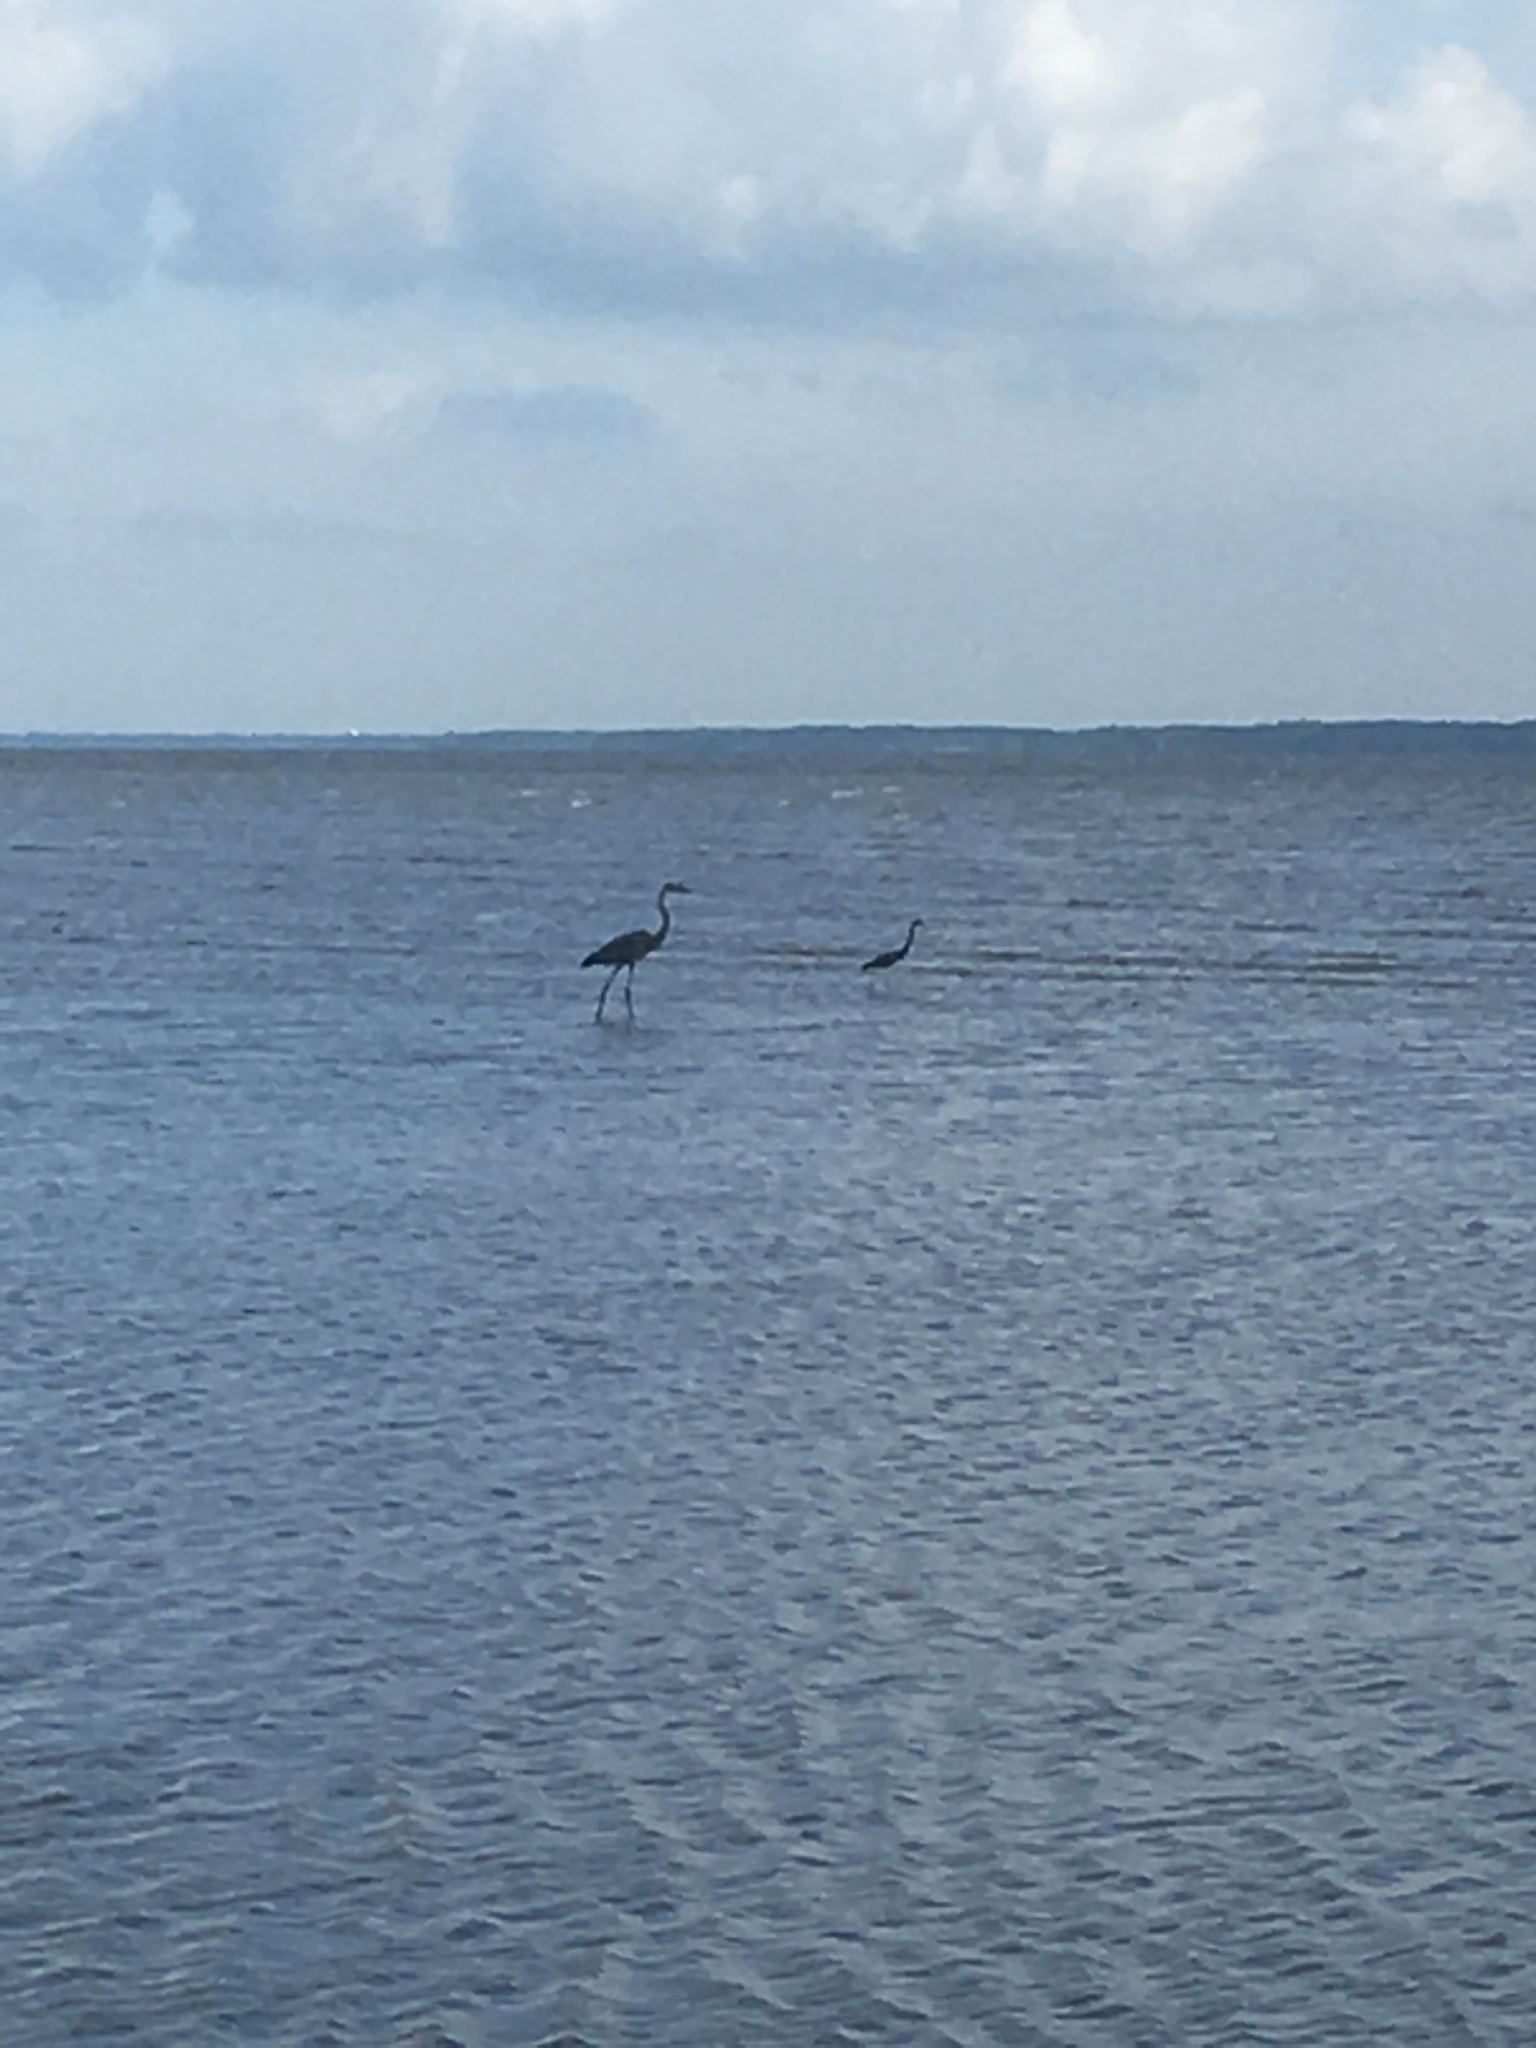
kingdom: Animalia
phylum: Chordata
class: Aves
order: Pelecaniformes
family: Ardeidae
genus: Ardea
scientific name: Ardea herodias
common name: Great blue heron
